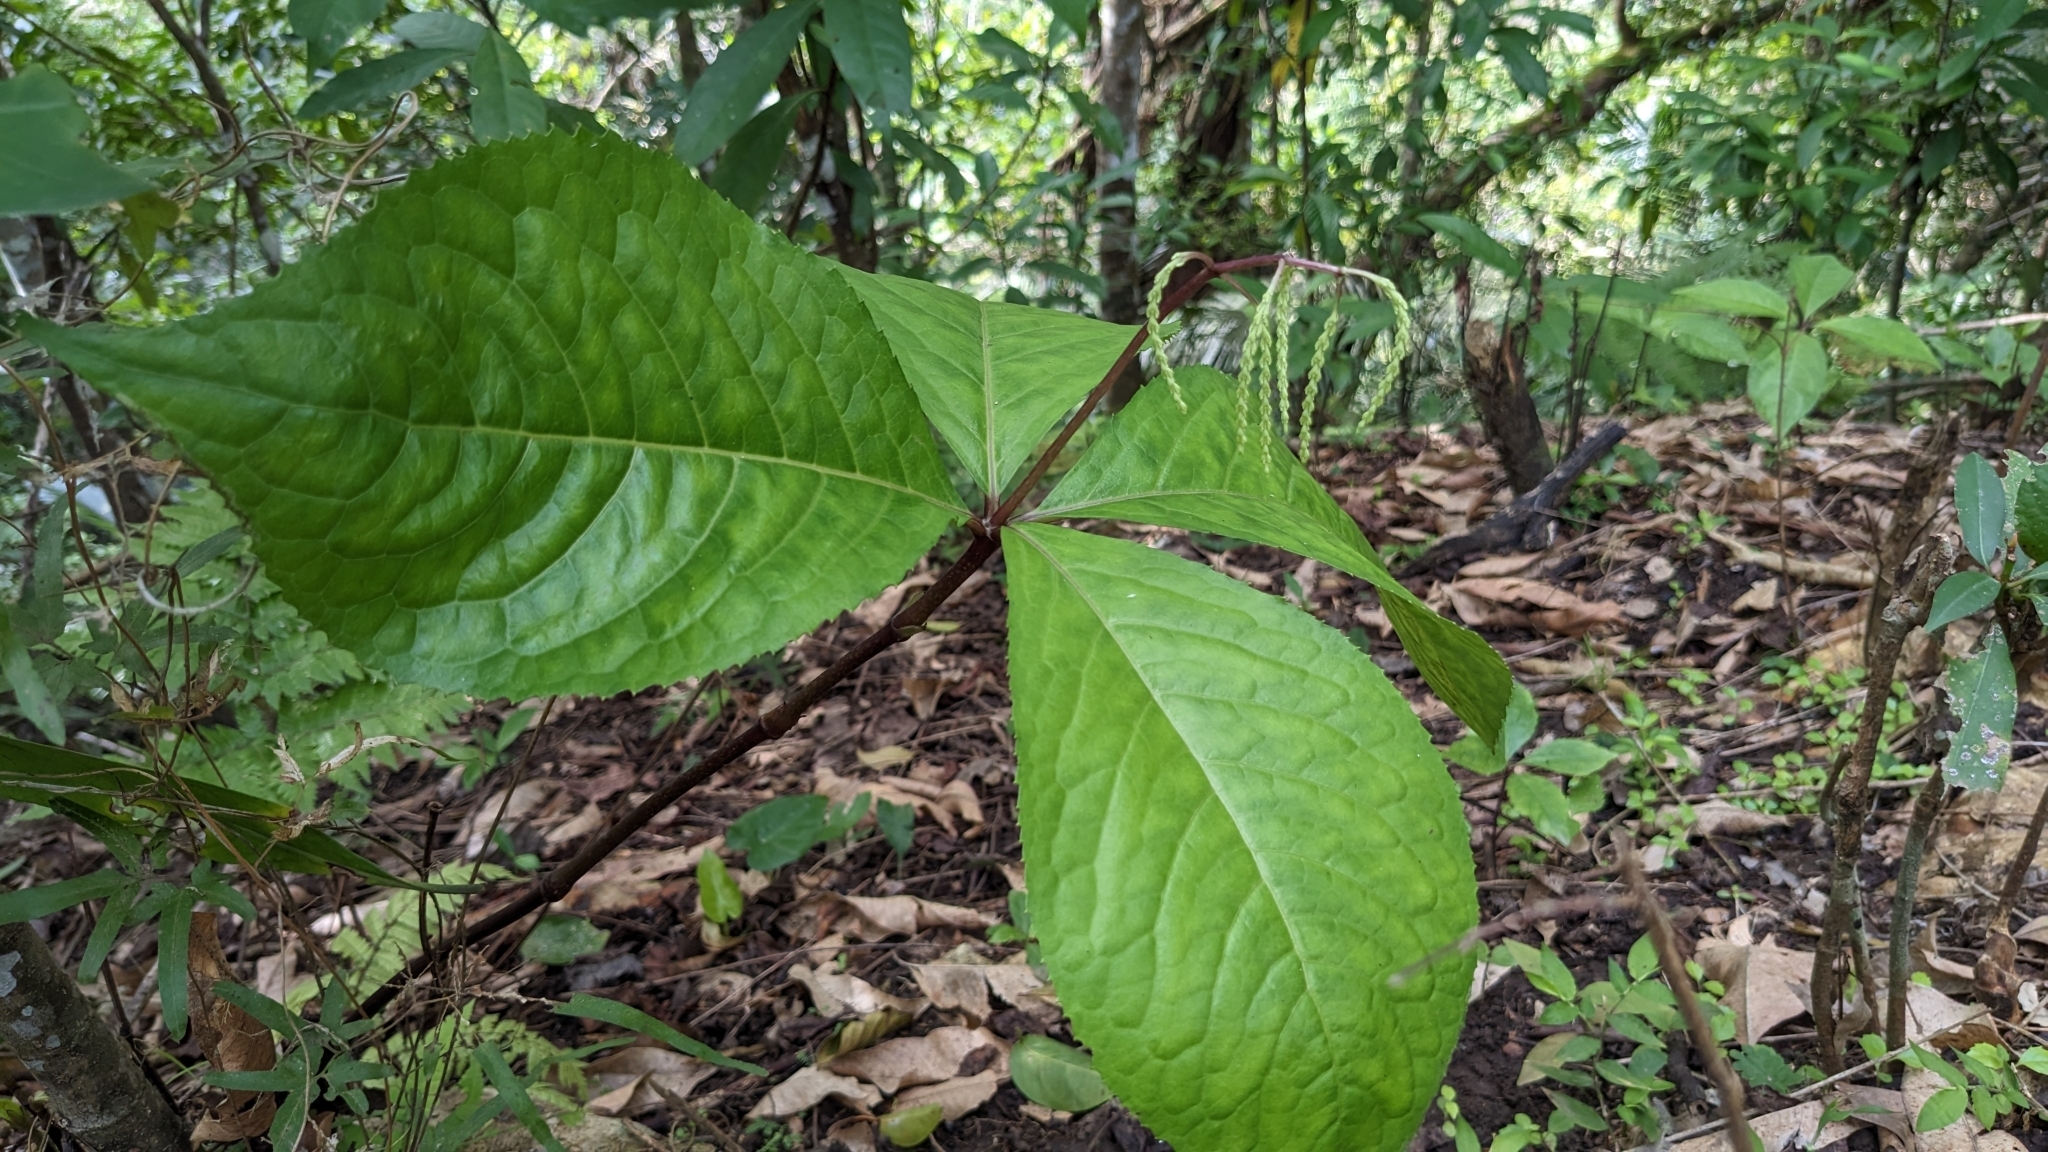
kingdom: Plantae
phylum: Tracheophyta
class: Magnoliopsida
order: Chloranthales
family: Chloranthaceae
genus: Chloranthus
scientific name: Chloranthus oldhamii
